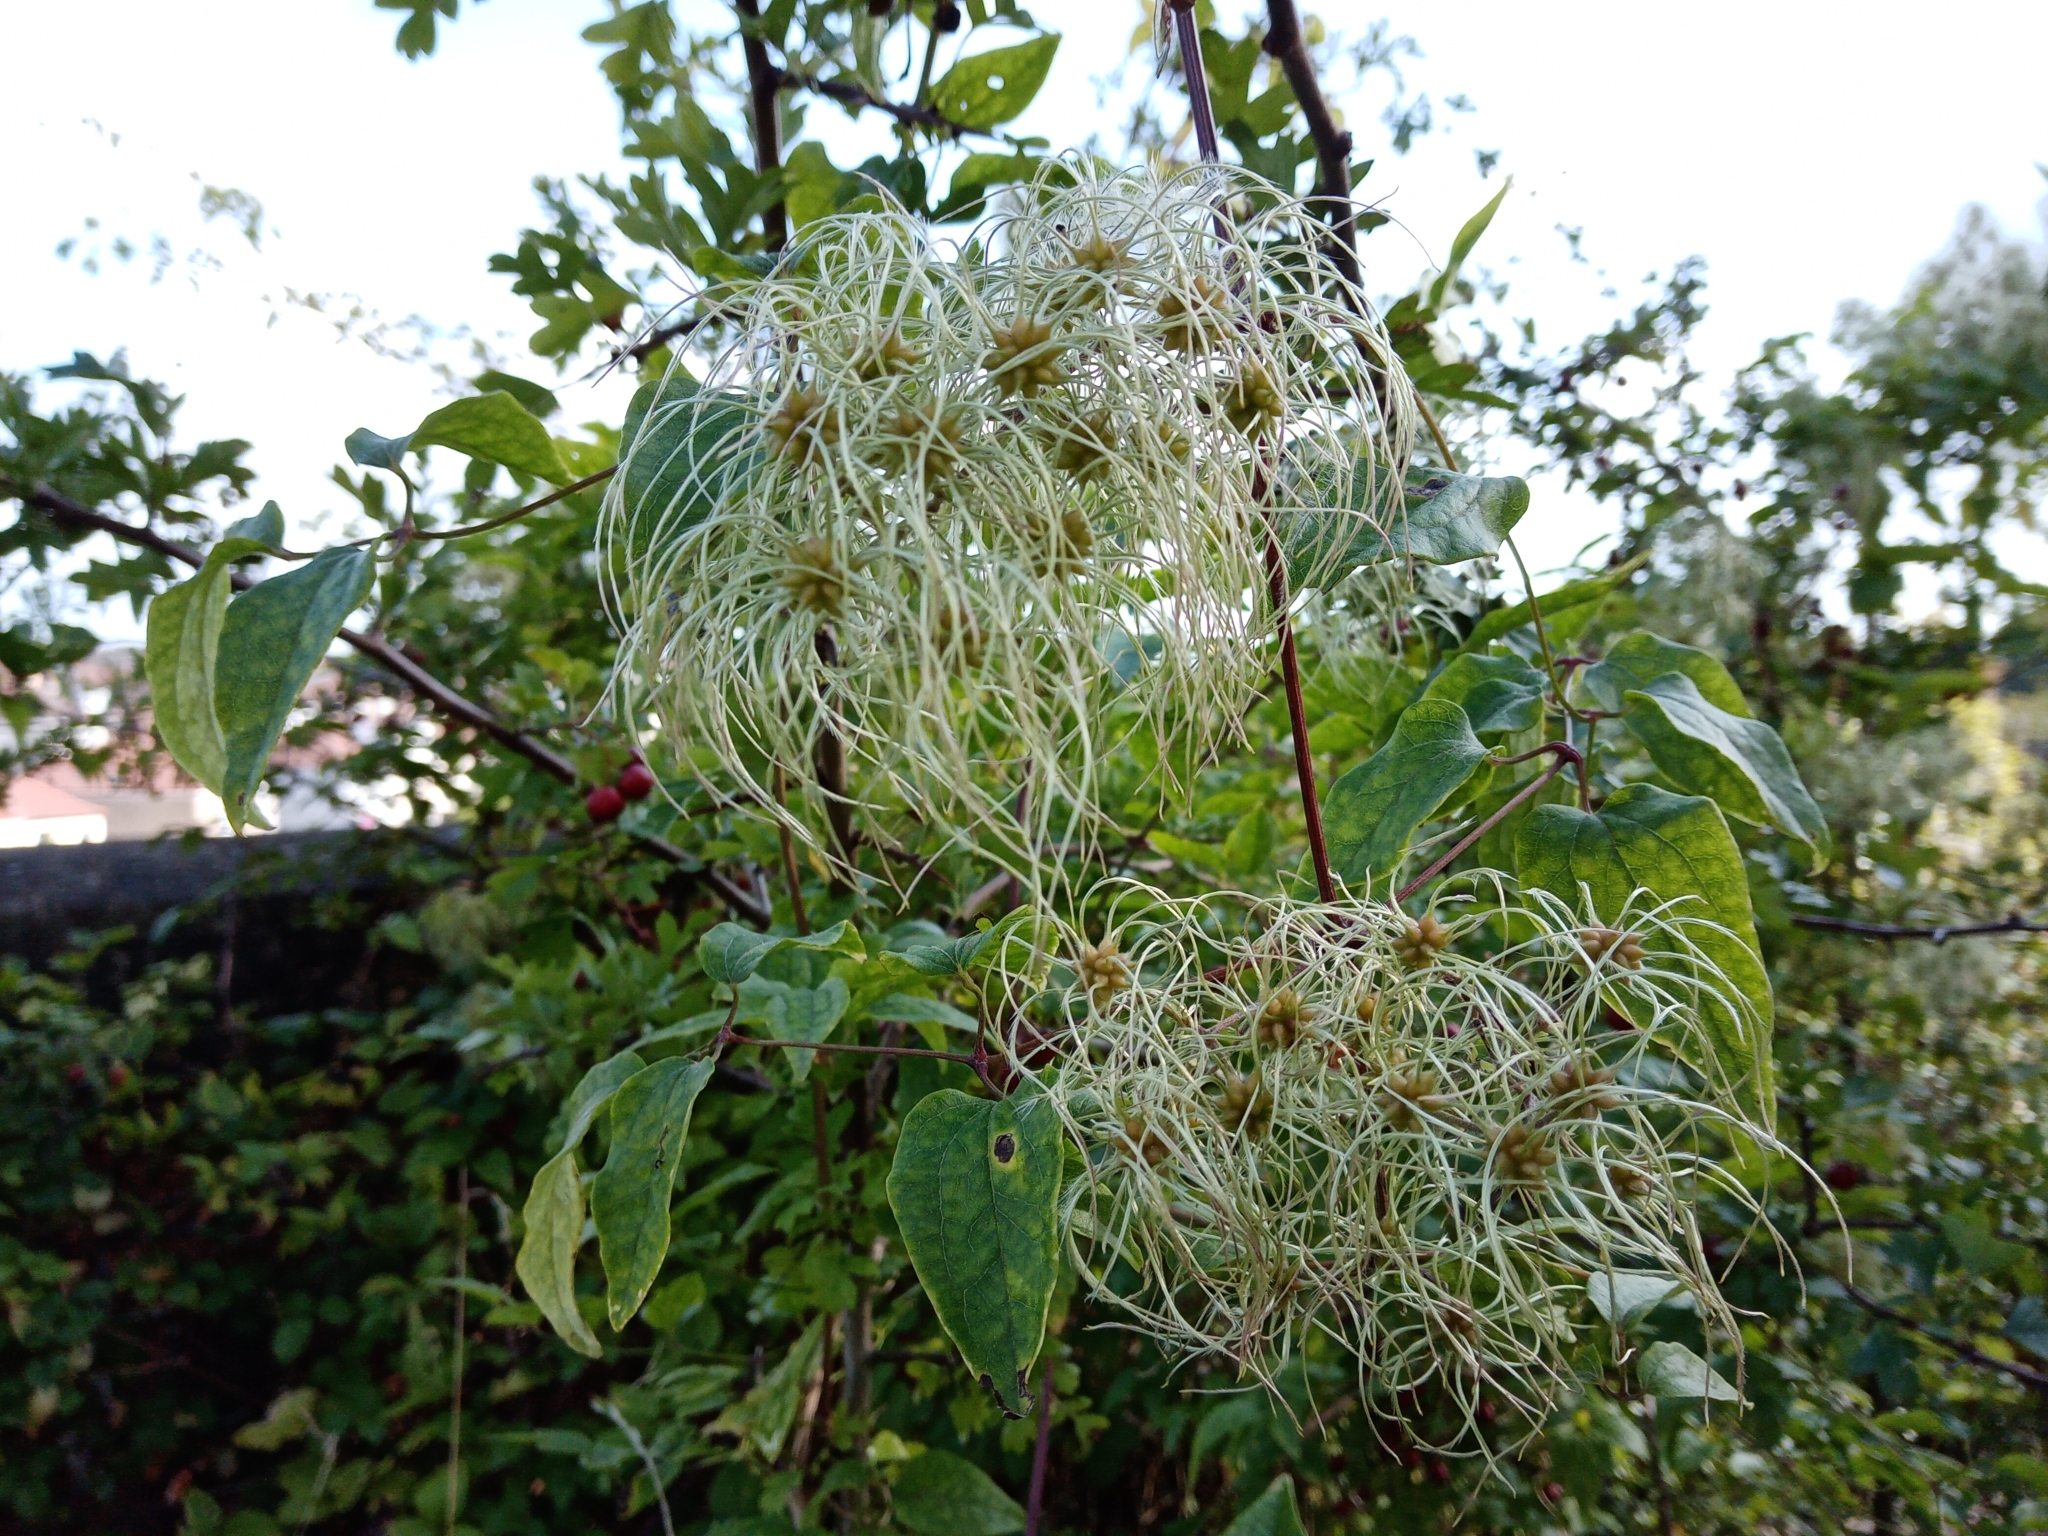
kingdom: Plantae
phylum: Tracheophyta
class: Magnoliopsida
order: Ranunculales
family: Ranunculaceae
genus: Clematis
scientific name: Clematis vitalba
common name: Evergreen clematis
